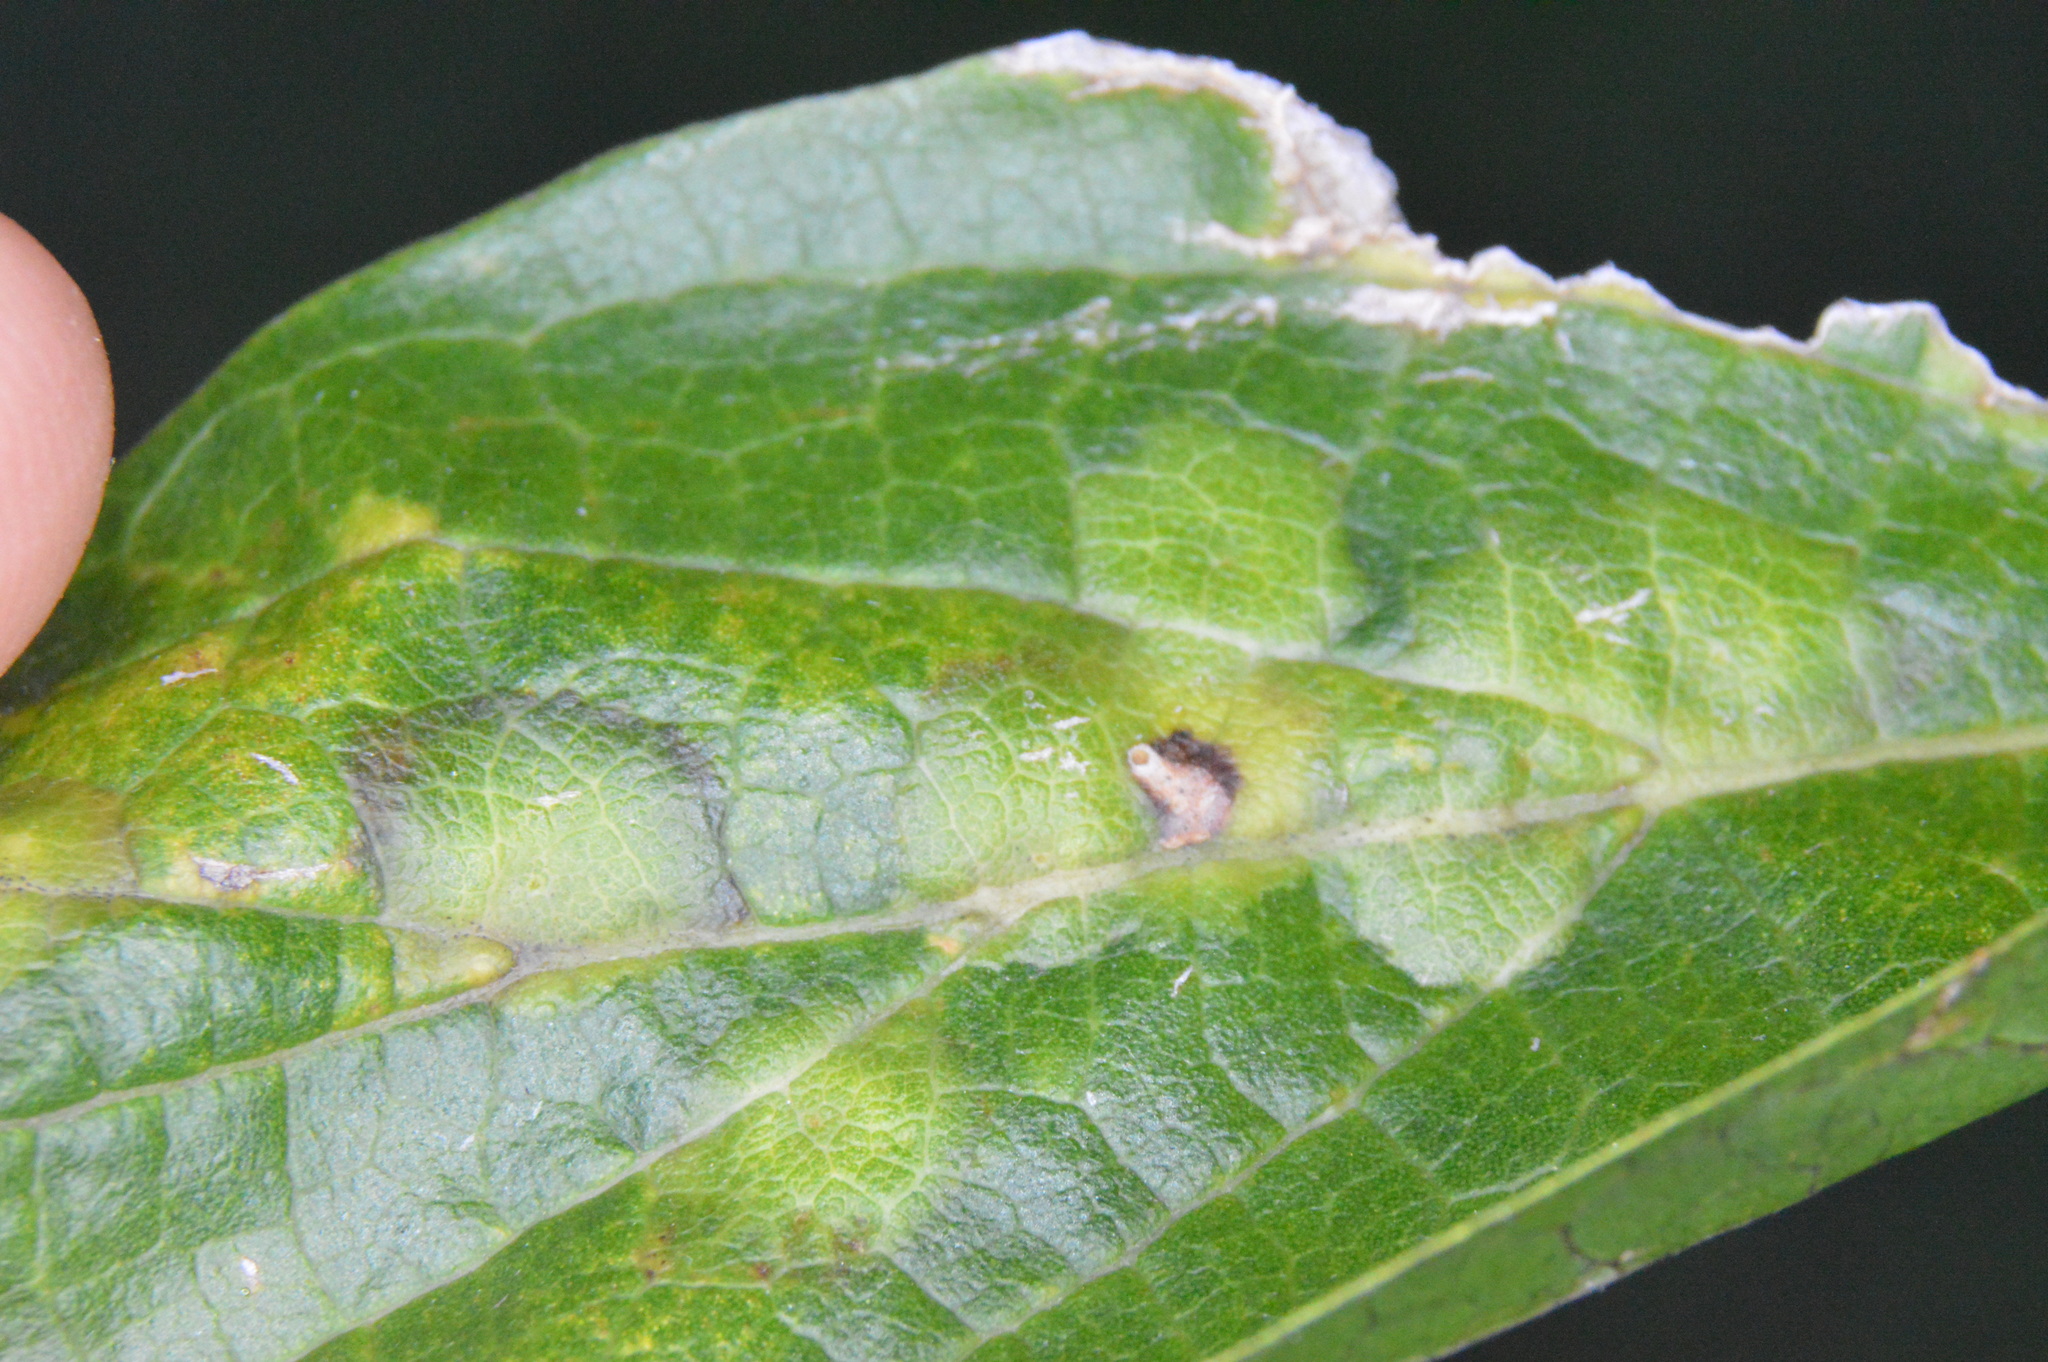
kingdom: Animalia
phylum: Arthropoda
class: Insecta
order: Hemiptera
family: Aphalaridae
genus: Pachypsylla
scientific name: Pachypsylla celtidisvesicula
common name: Hackberry blister gall psyllid
